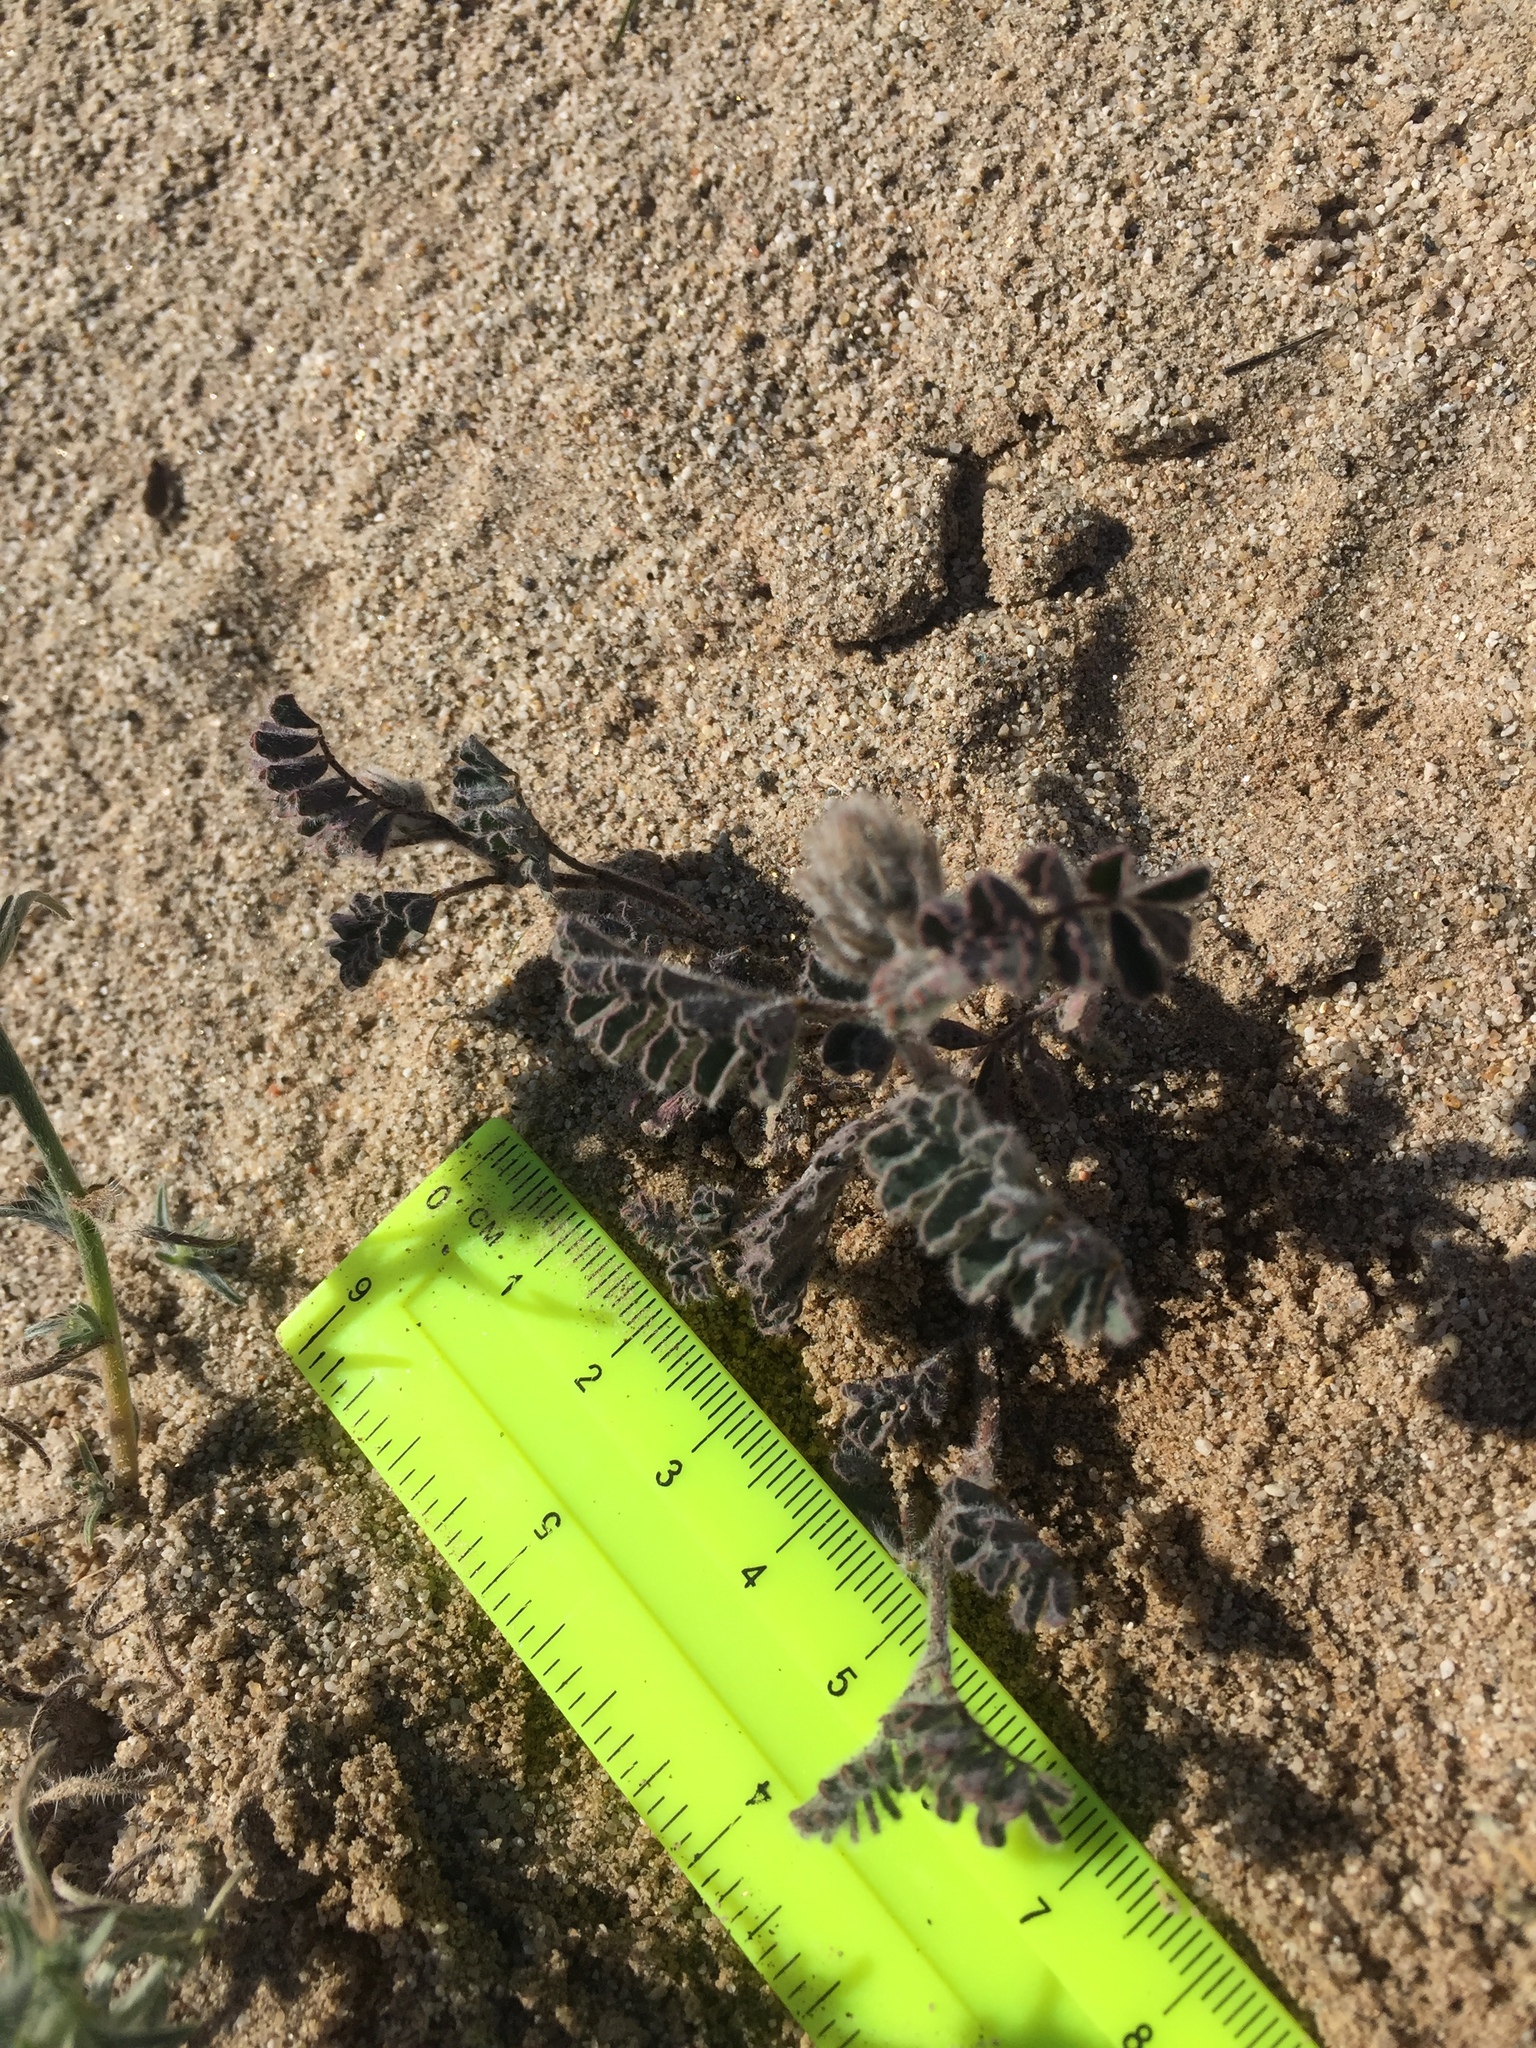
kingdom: Plantae
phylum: Tracheophyta
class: Magnoliopsida
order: Fabales
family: Fabaceae
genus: Dalea
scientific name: Dalea mollissima
